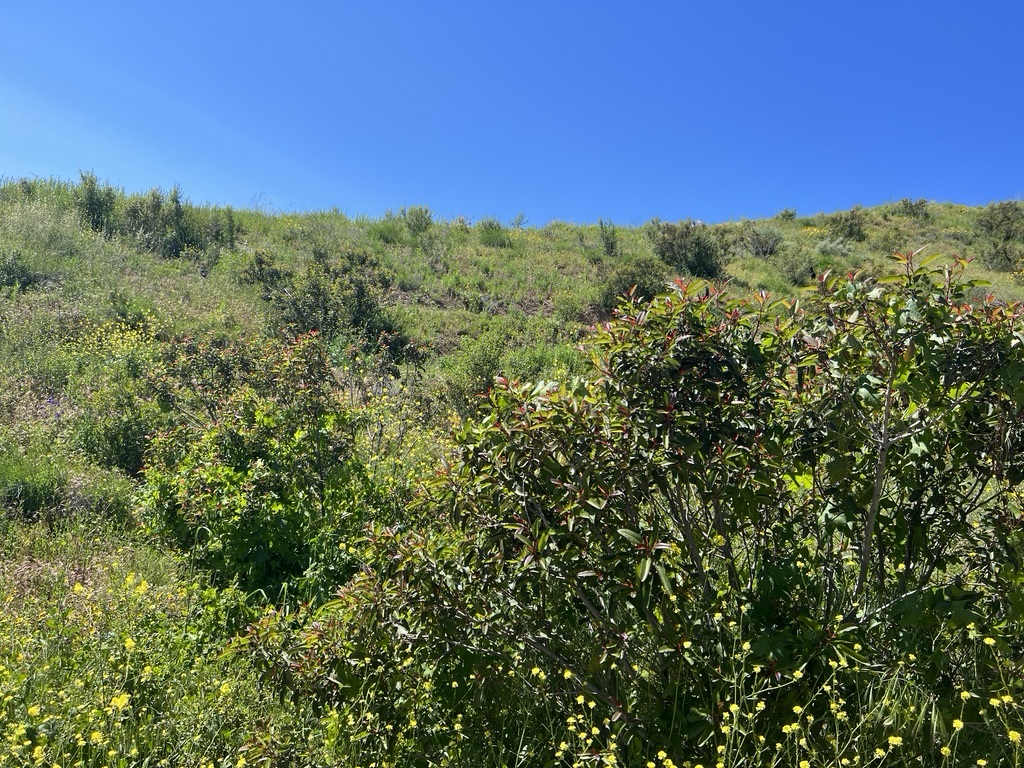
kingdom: Plantae
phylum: Tracheophyta
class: Magnoliopsida
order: Sapindales
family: Anacardiaceae
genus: Malosma
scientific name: Malosma laurina
